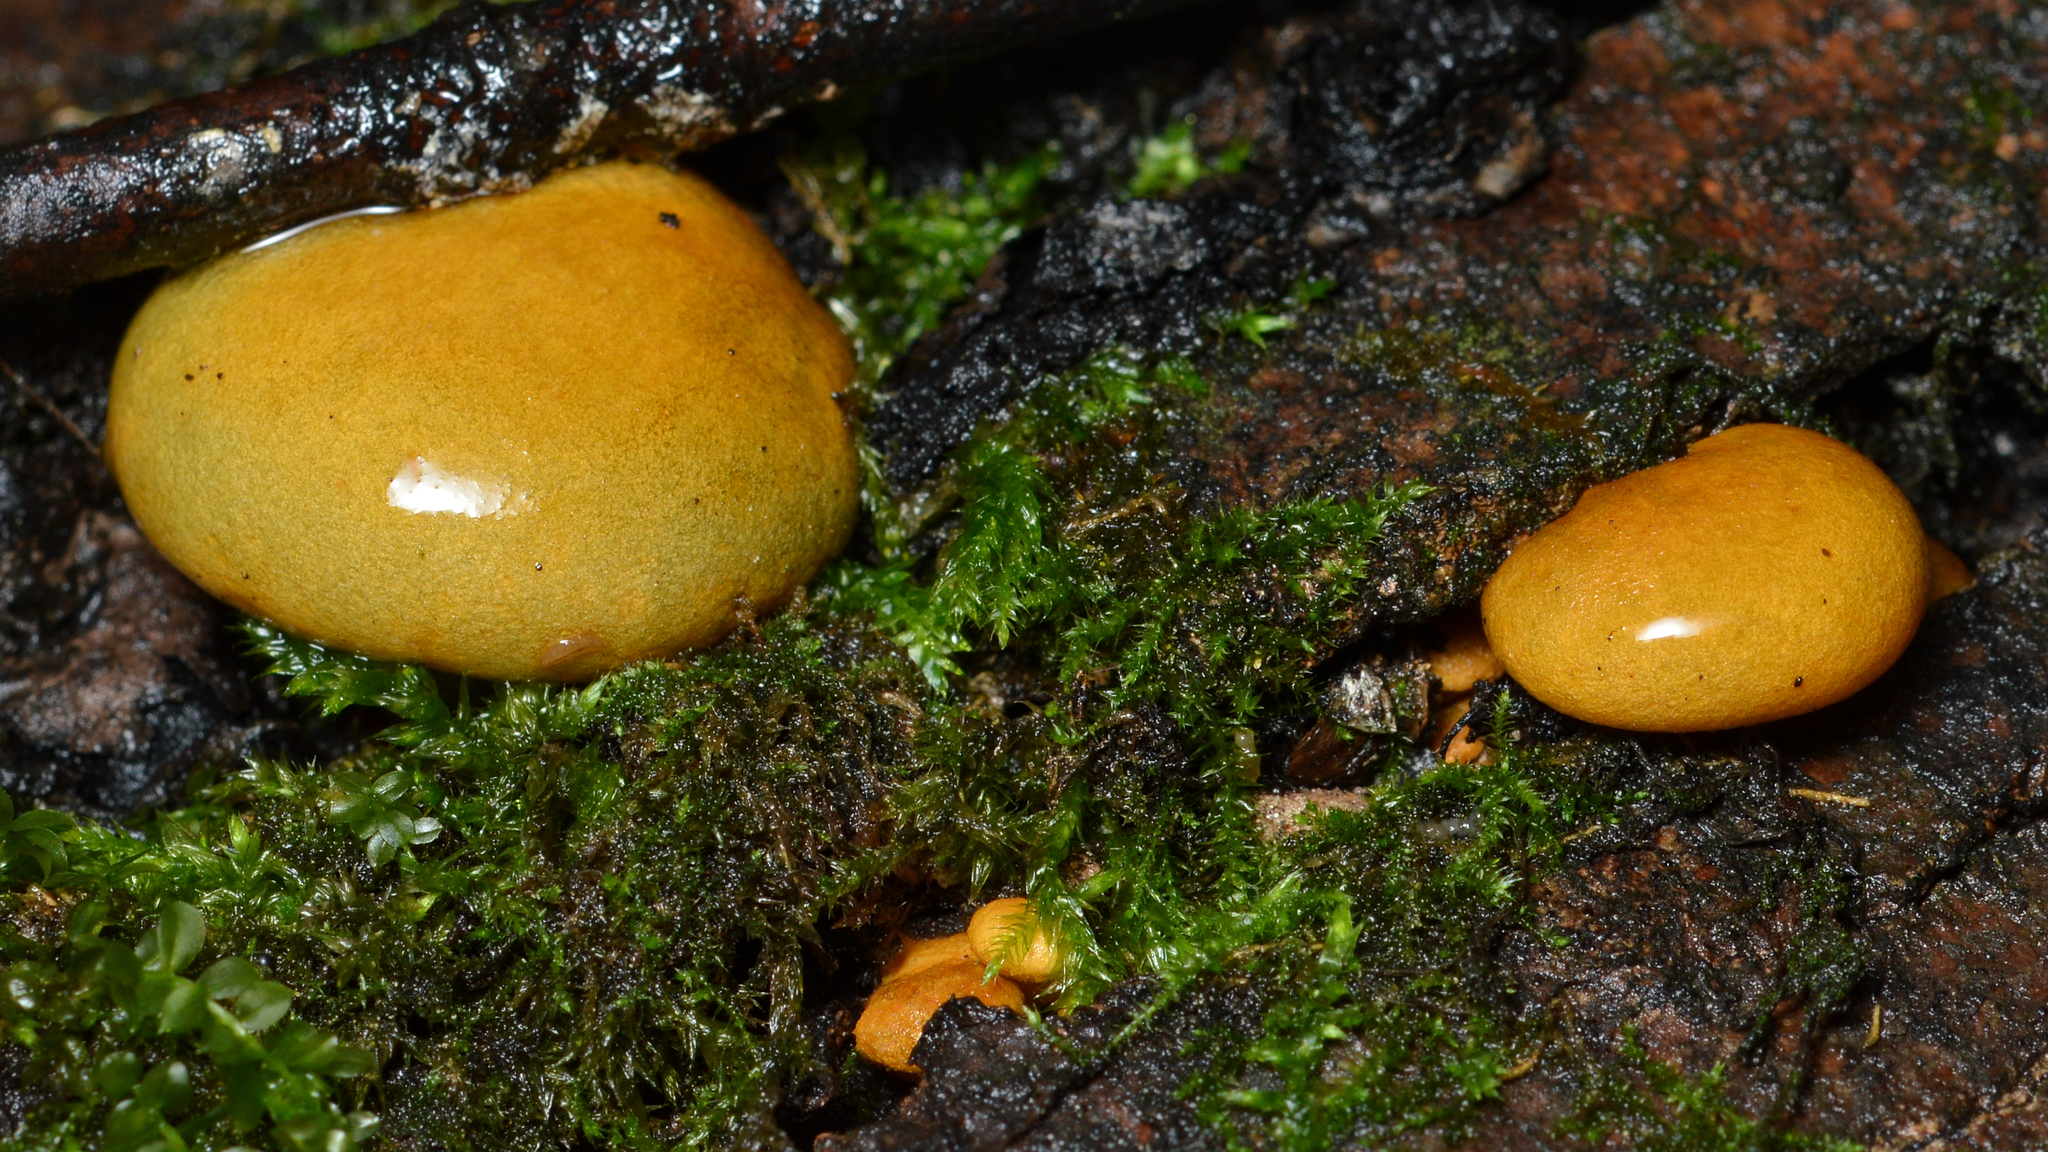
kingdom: Fungi
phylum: Basidiomycota
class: Agaricomycetes
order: Agaricales
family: Sarcomyxaceae
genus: Sarcomyxa
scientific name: Sarcomyxa serotina
